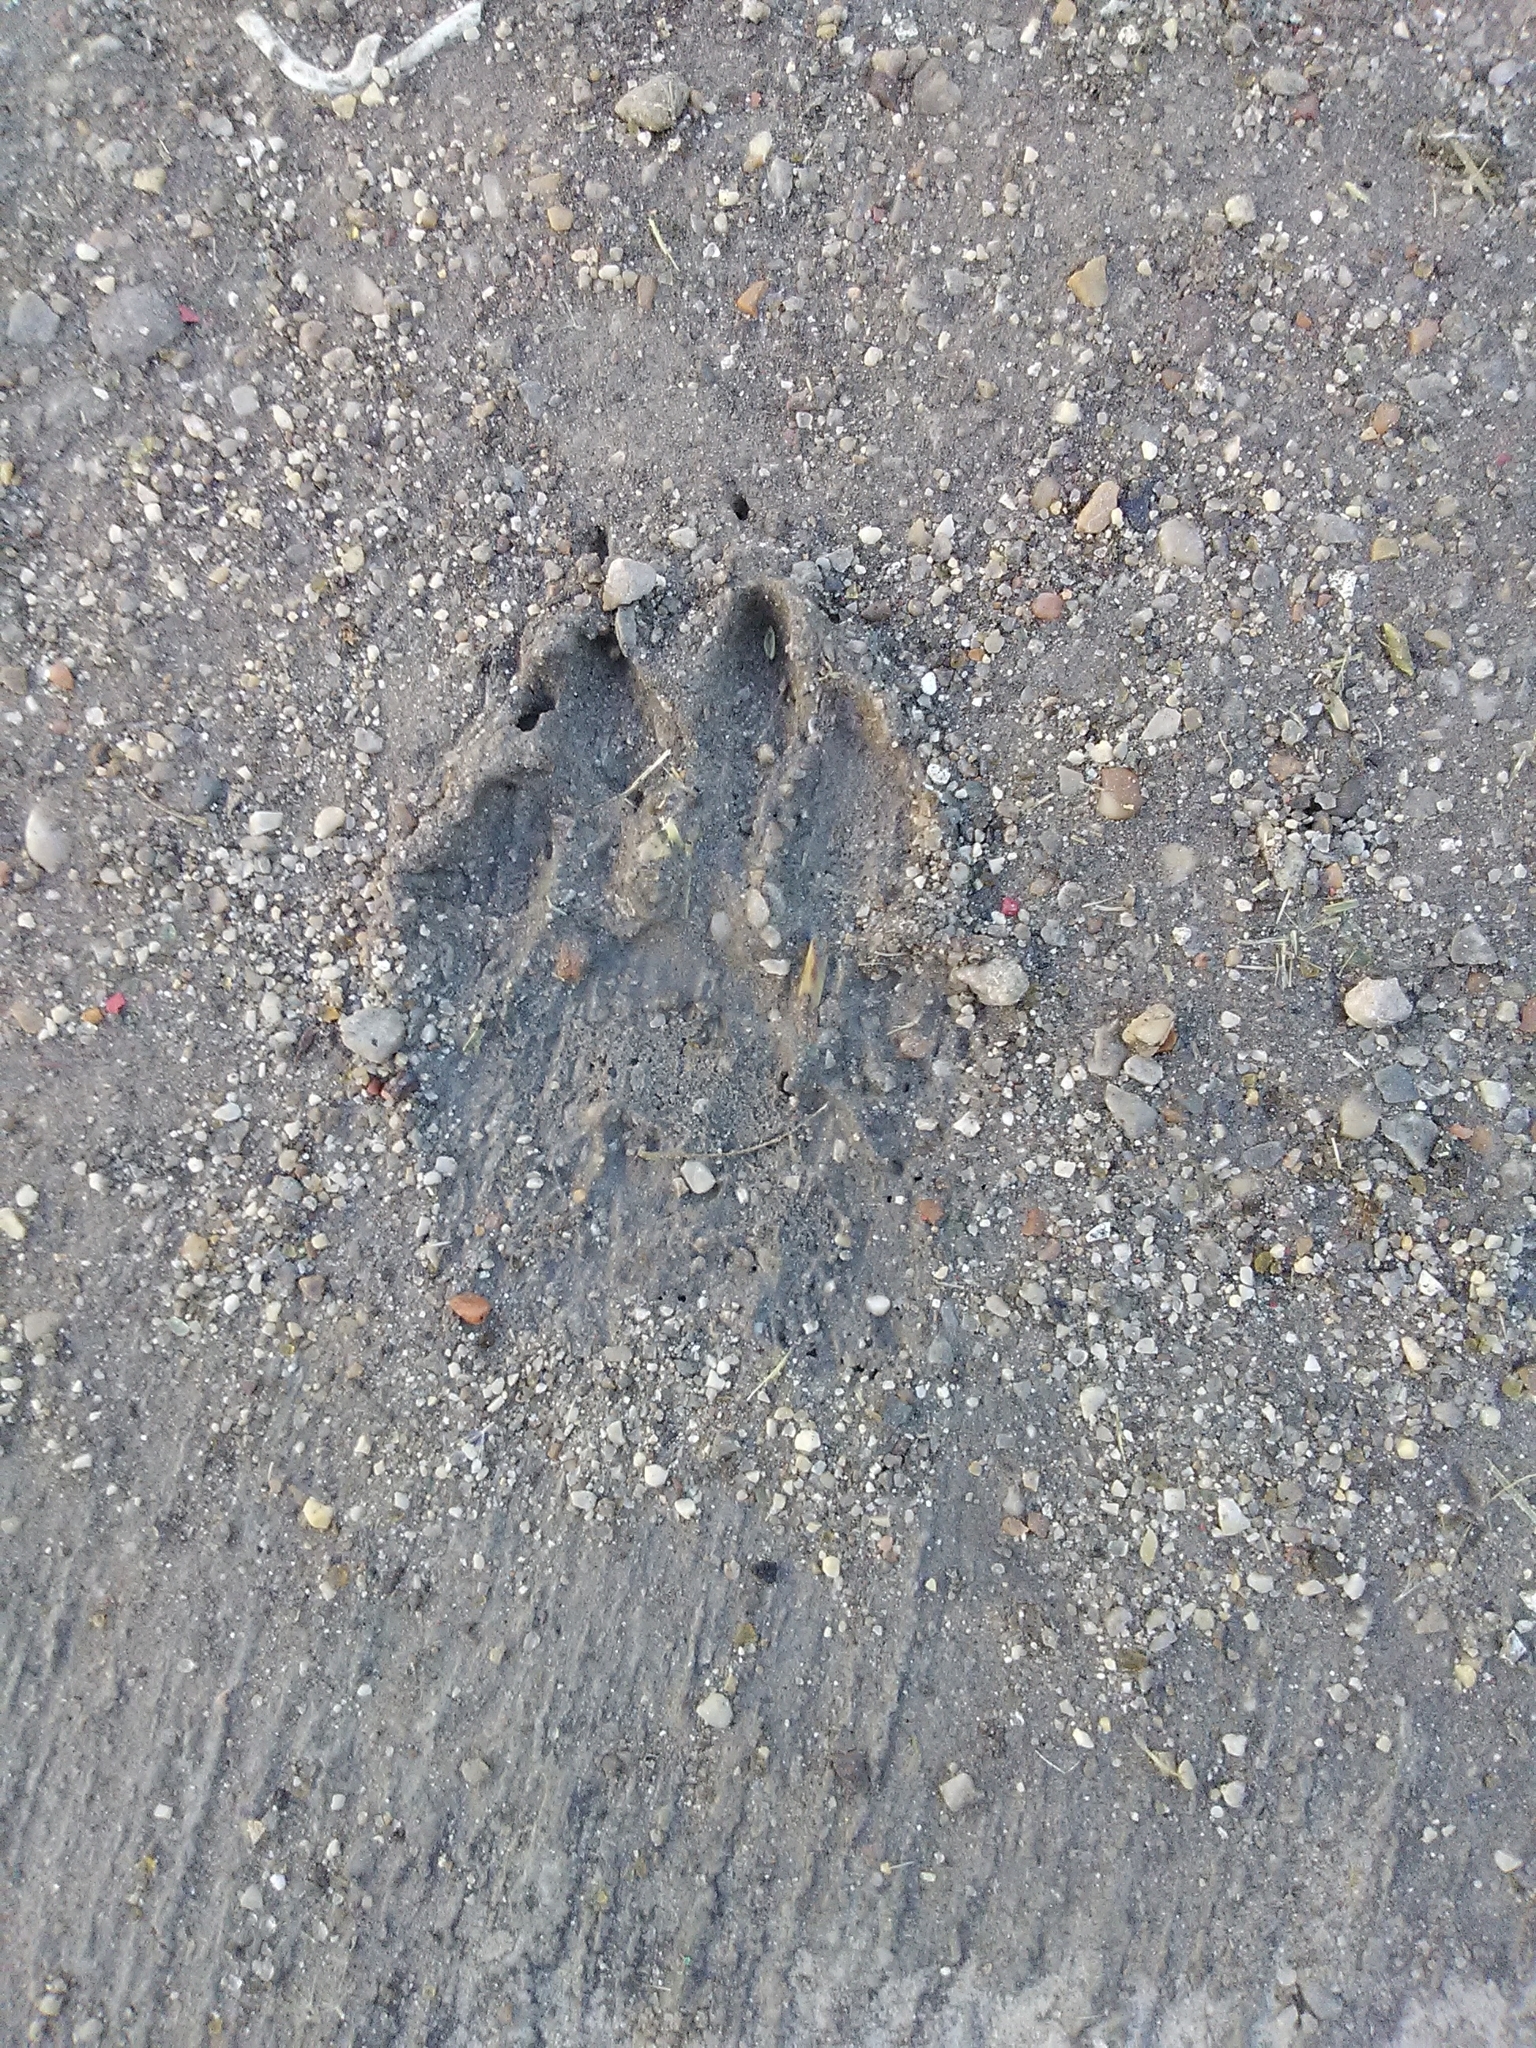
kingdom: Animalia
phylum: Chordata
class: Mammalia
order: Carnivora
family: Procyonidae
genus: Procyon
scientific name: Procyon lotor
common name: Raccoon
